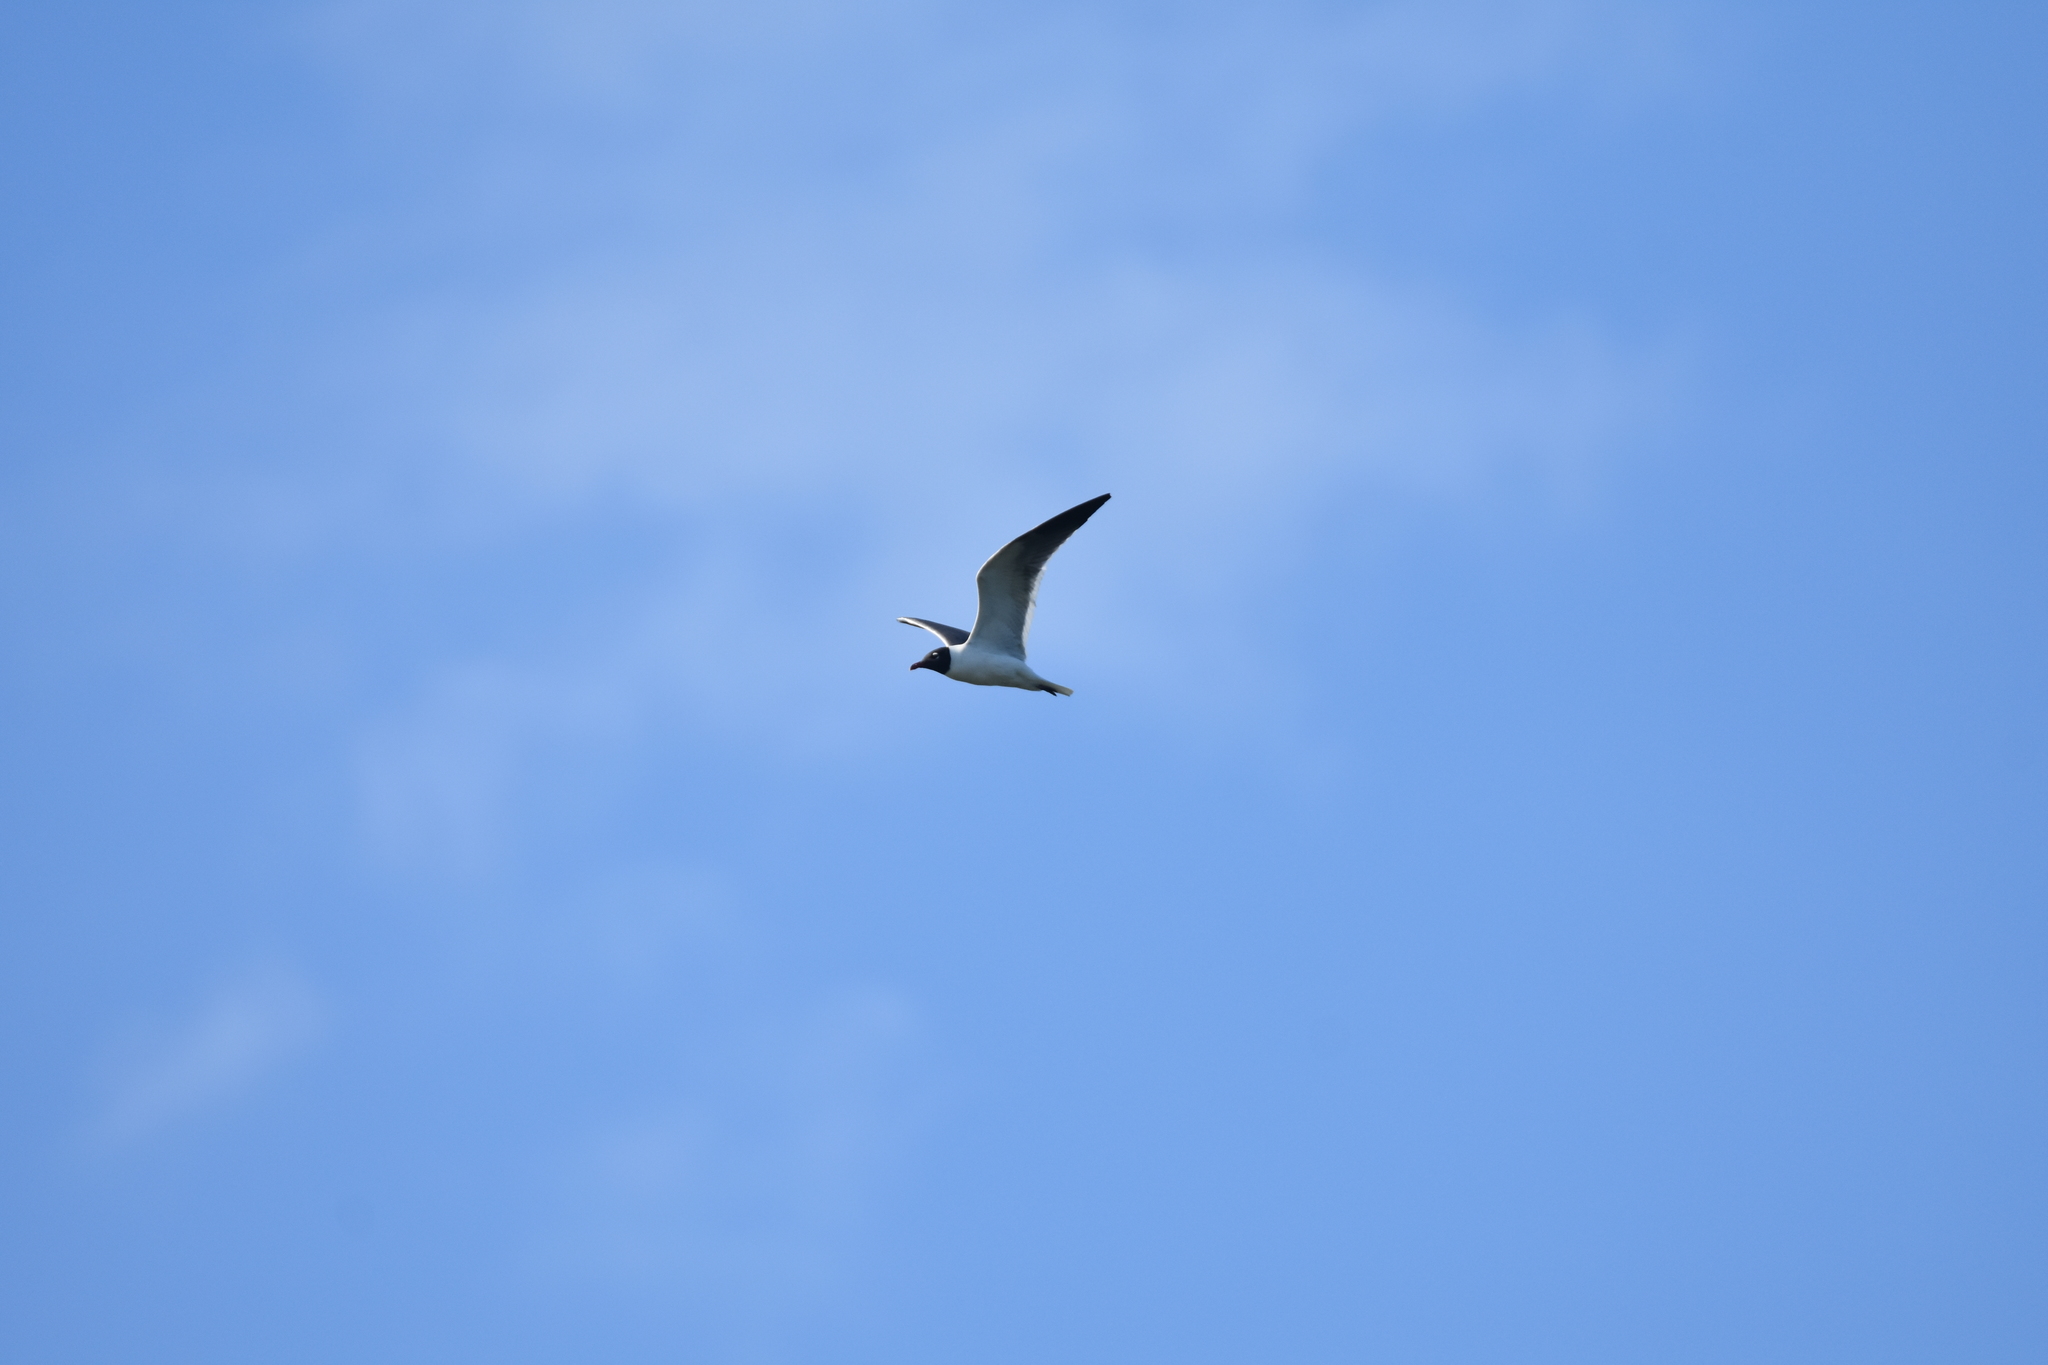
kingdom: Animalia
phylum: Chordata
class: Aves
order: Charadriiformes
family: Laridae
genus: Leucophaeus
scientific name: Leucophaeus atricilla
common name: Laughing gull
